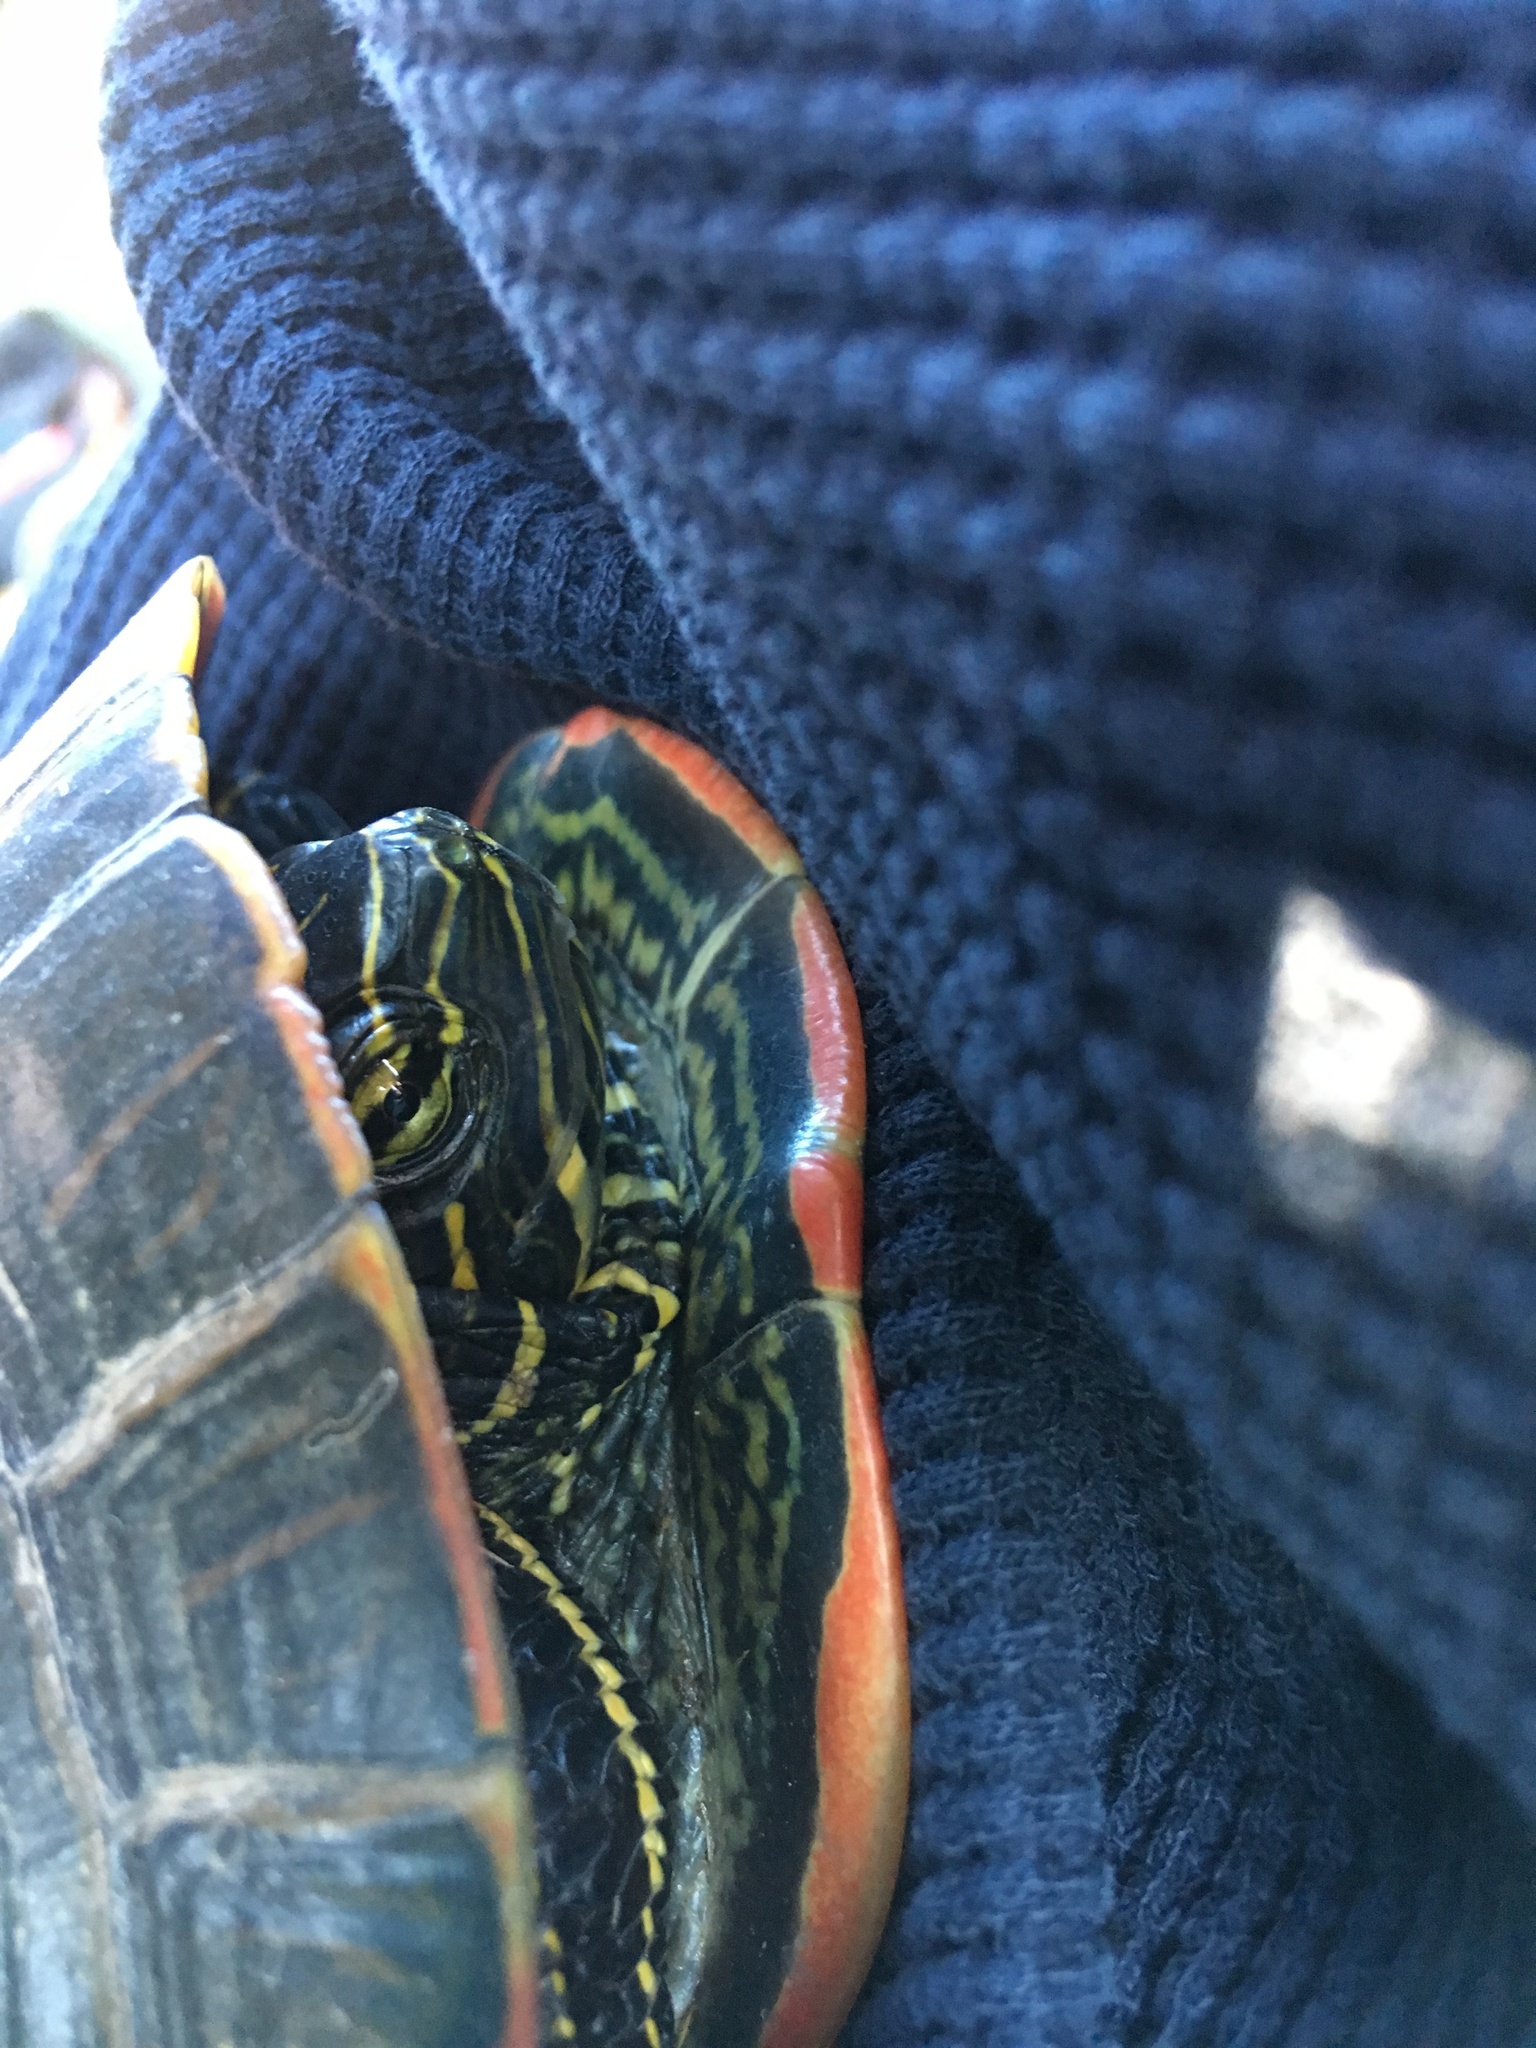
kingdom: Animalia
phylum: Chordata
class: Testudines
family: Emydidae
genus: Chrysemys
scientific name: Chrysemys picta
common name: Painted turtle
